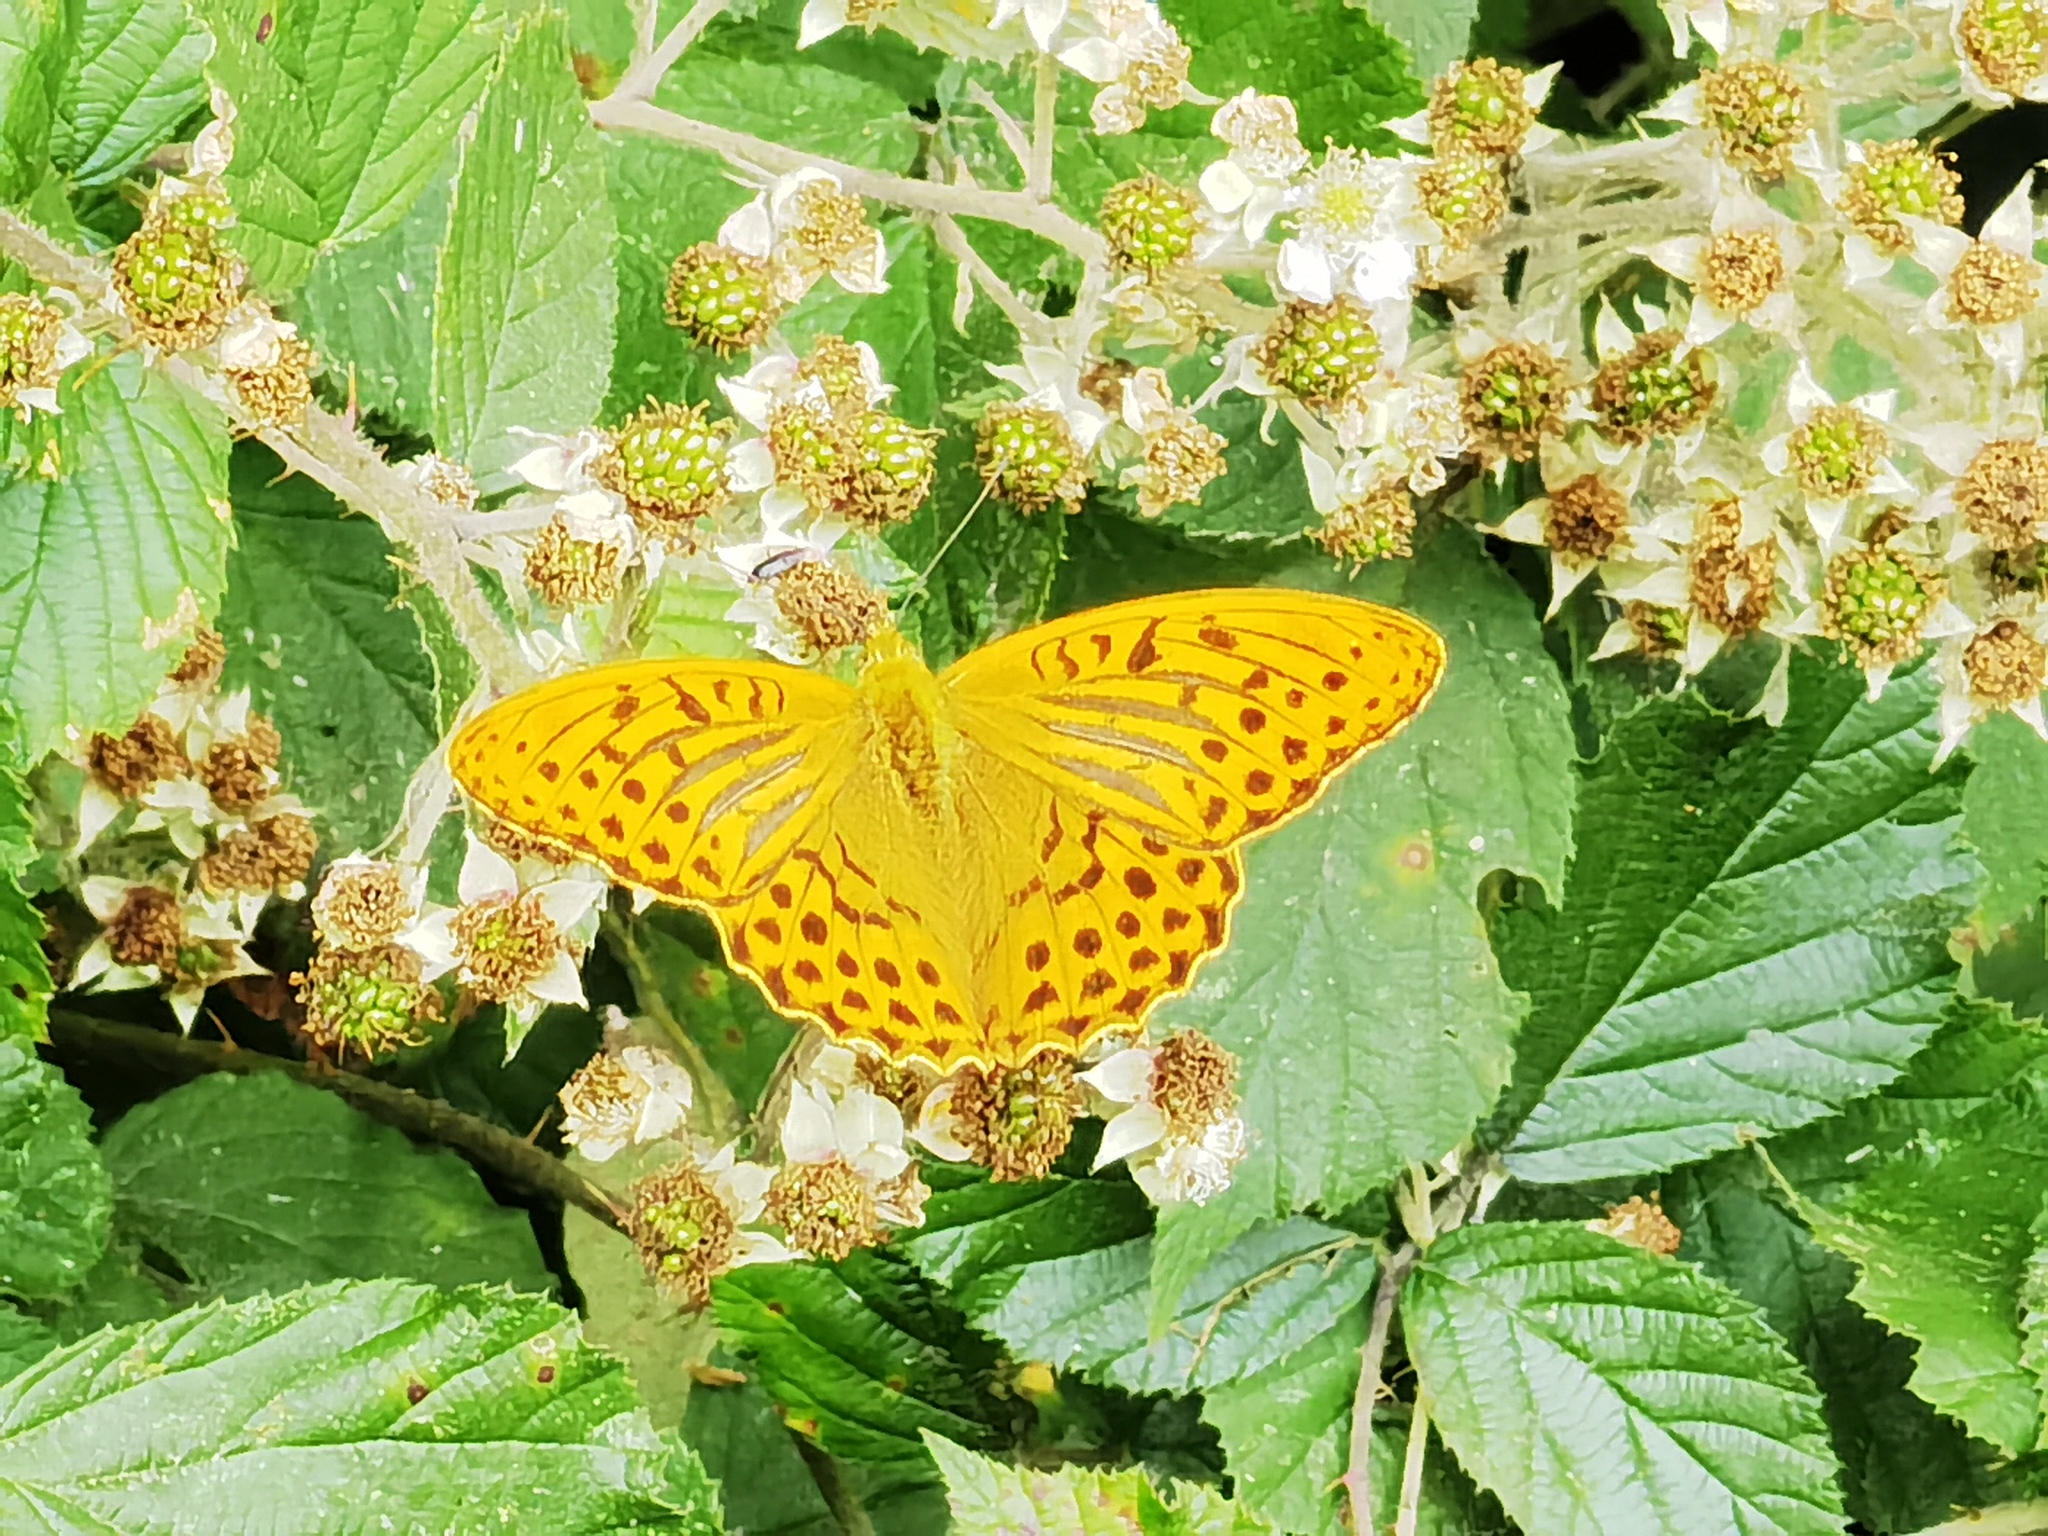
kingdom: Animalia
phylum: Arthropoda
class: Insecta
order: Lepidoptera
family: Nymphalidae
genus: Argynnis
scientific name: Argynnis paphia
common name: Silver-washed fritillary
